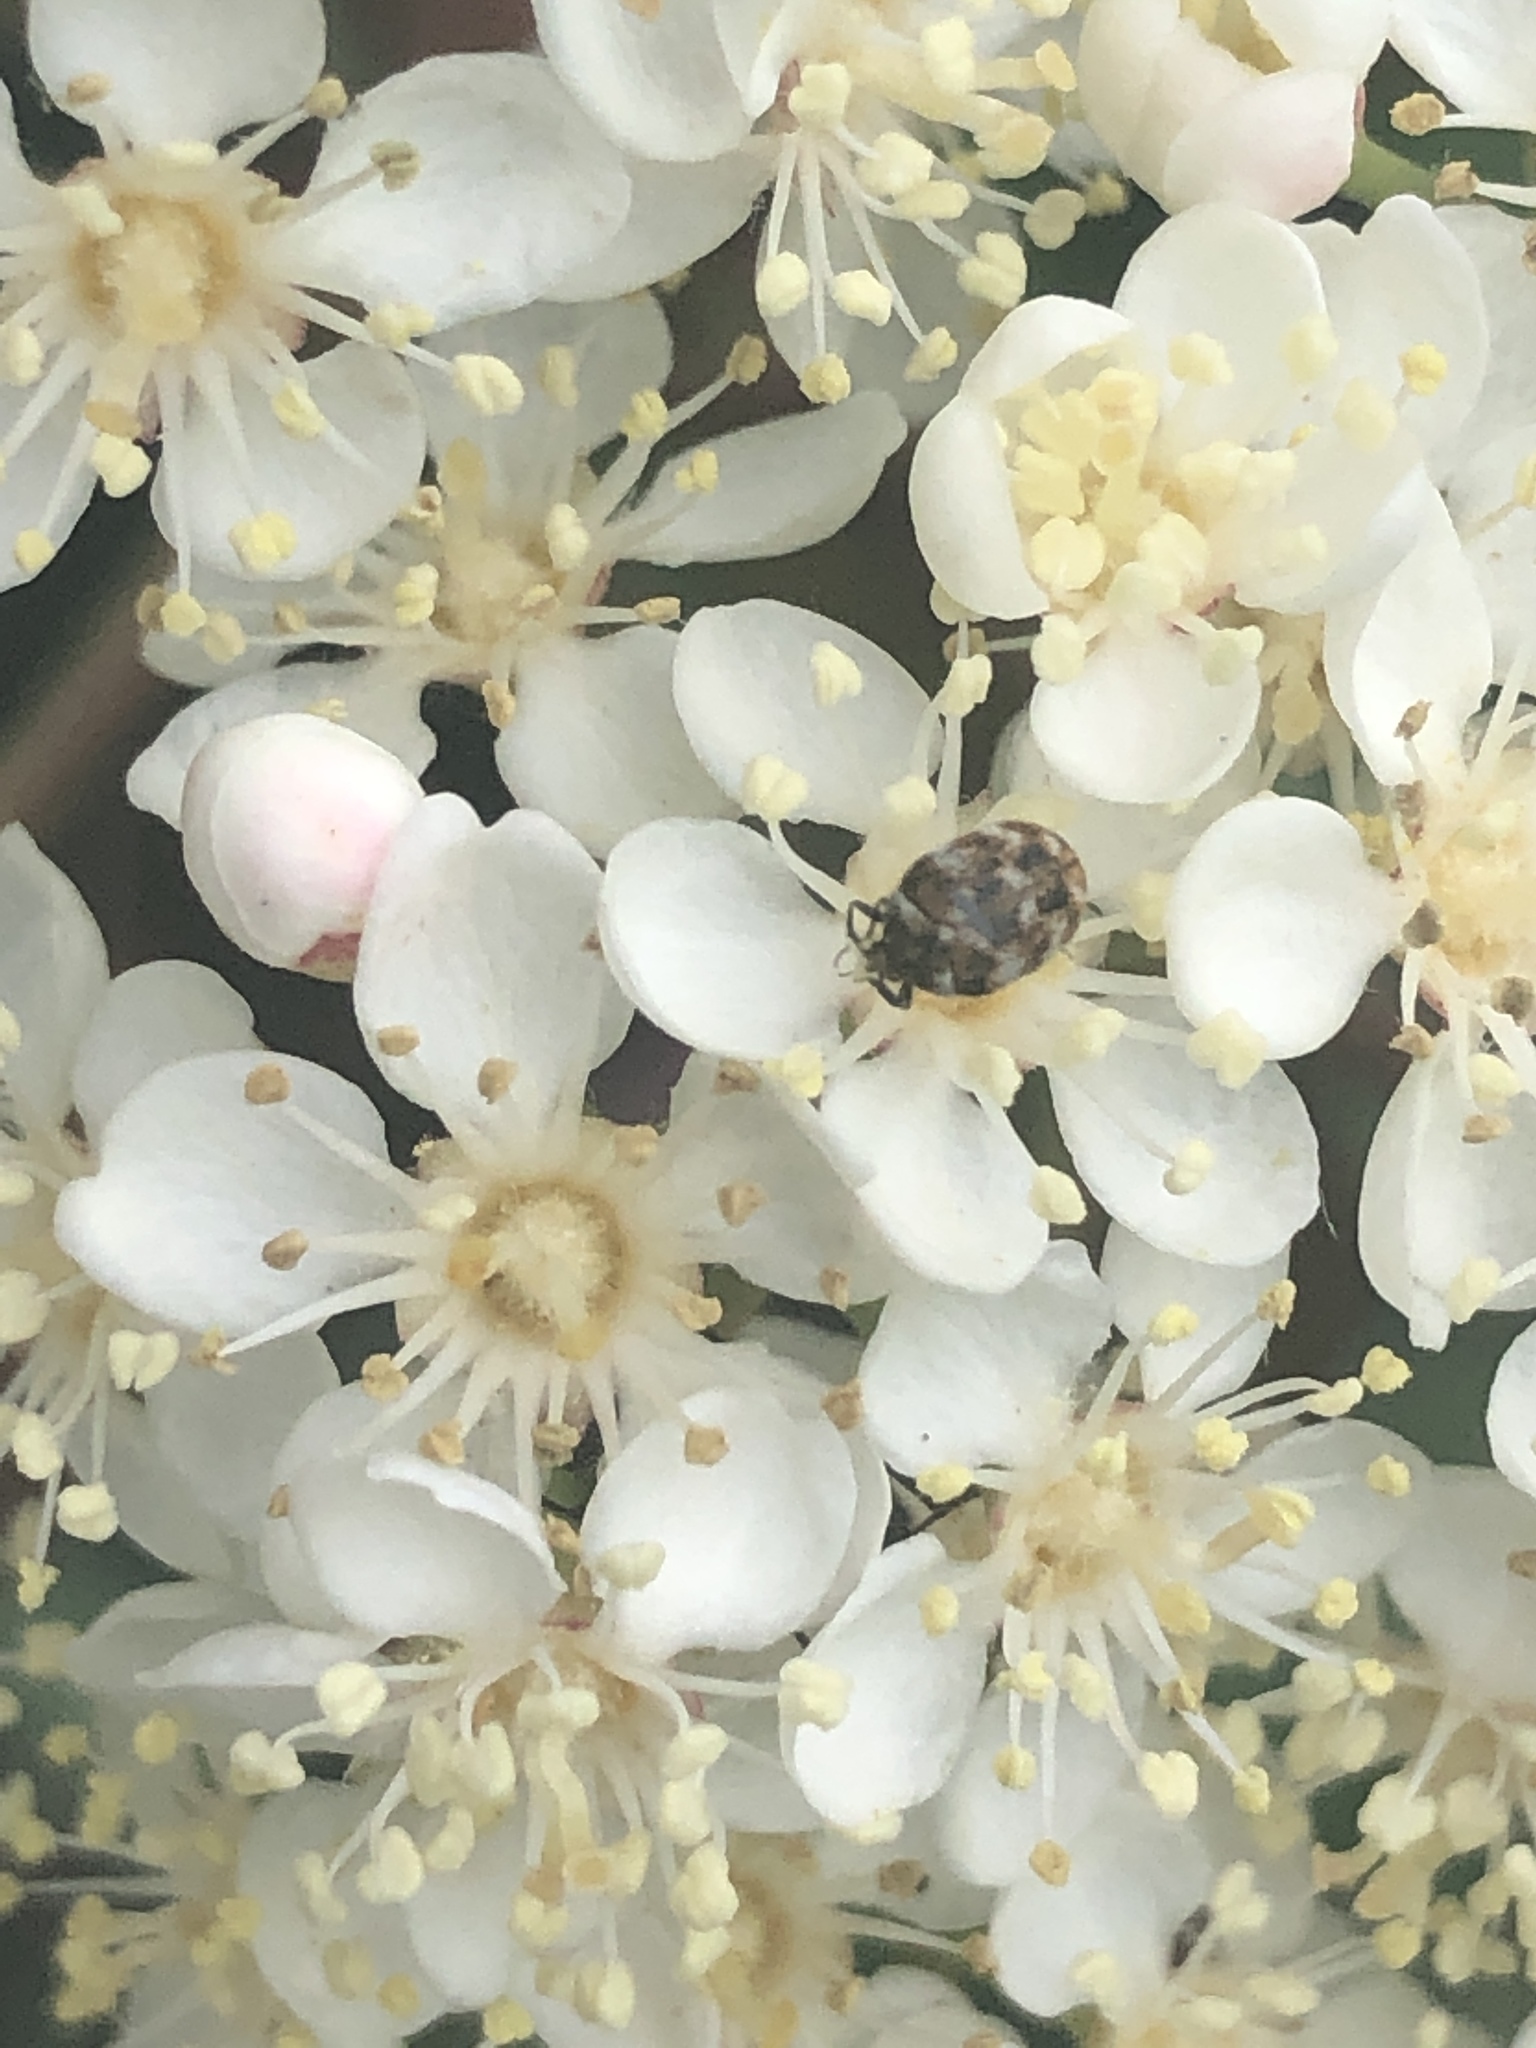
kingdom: Animalia
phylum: Arthropoda
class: Insecta
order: Coleoptera
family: Dermestidae
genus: Anthrenus
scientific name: Anthrenus verbasci
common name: Varied carpet beetle
